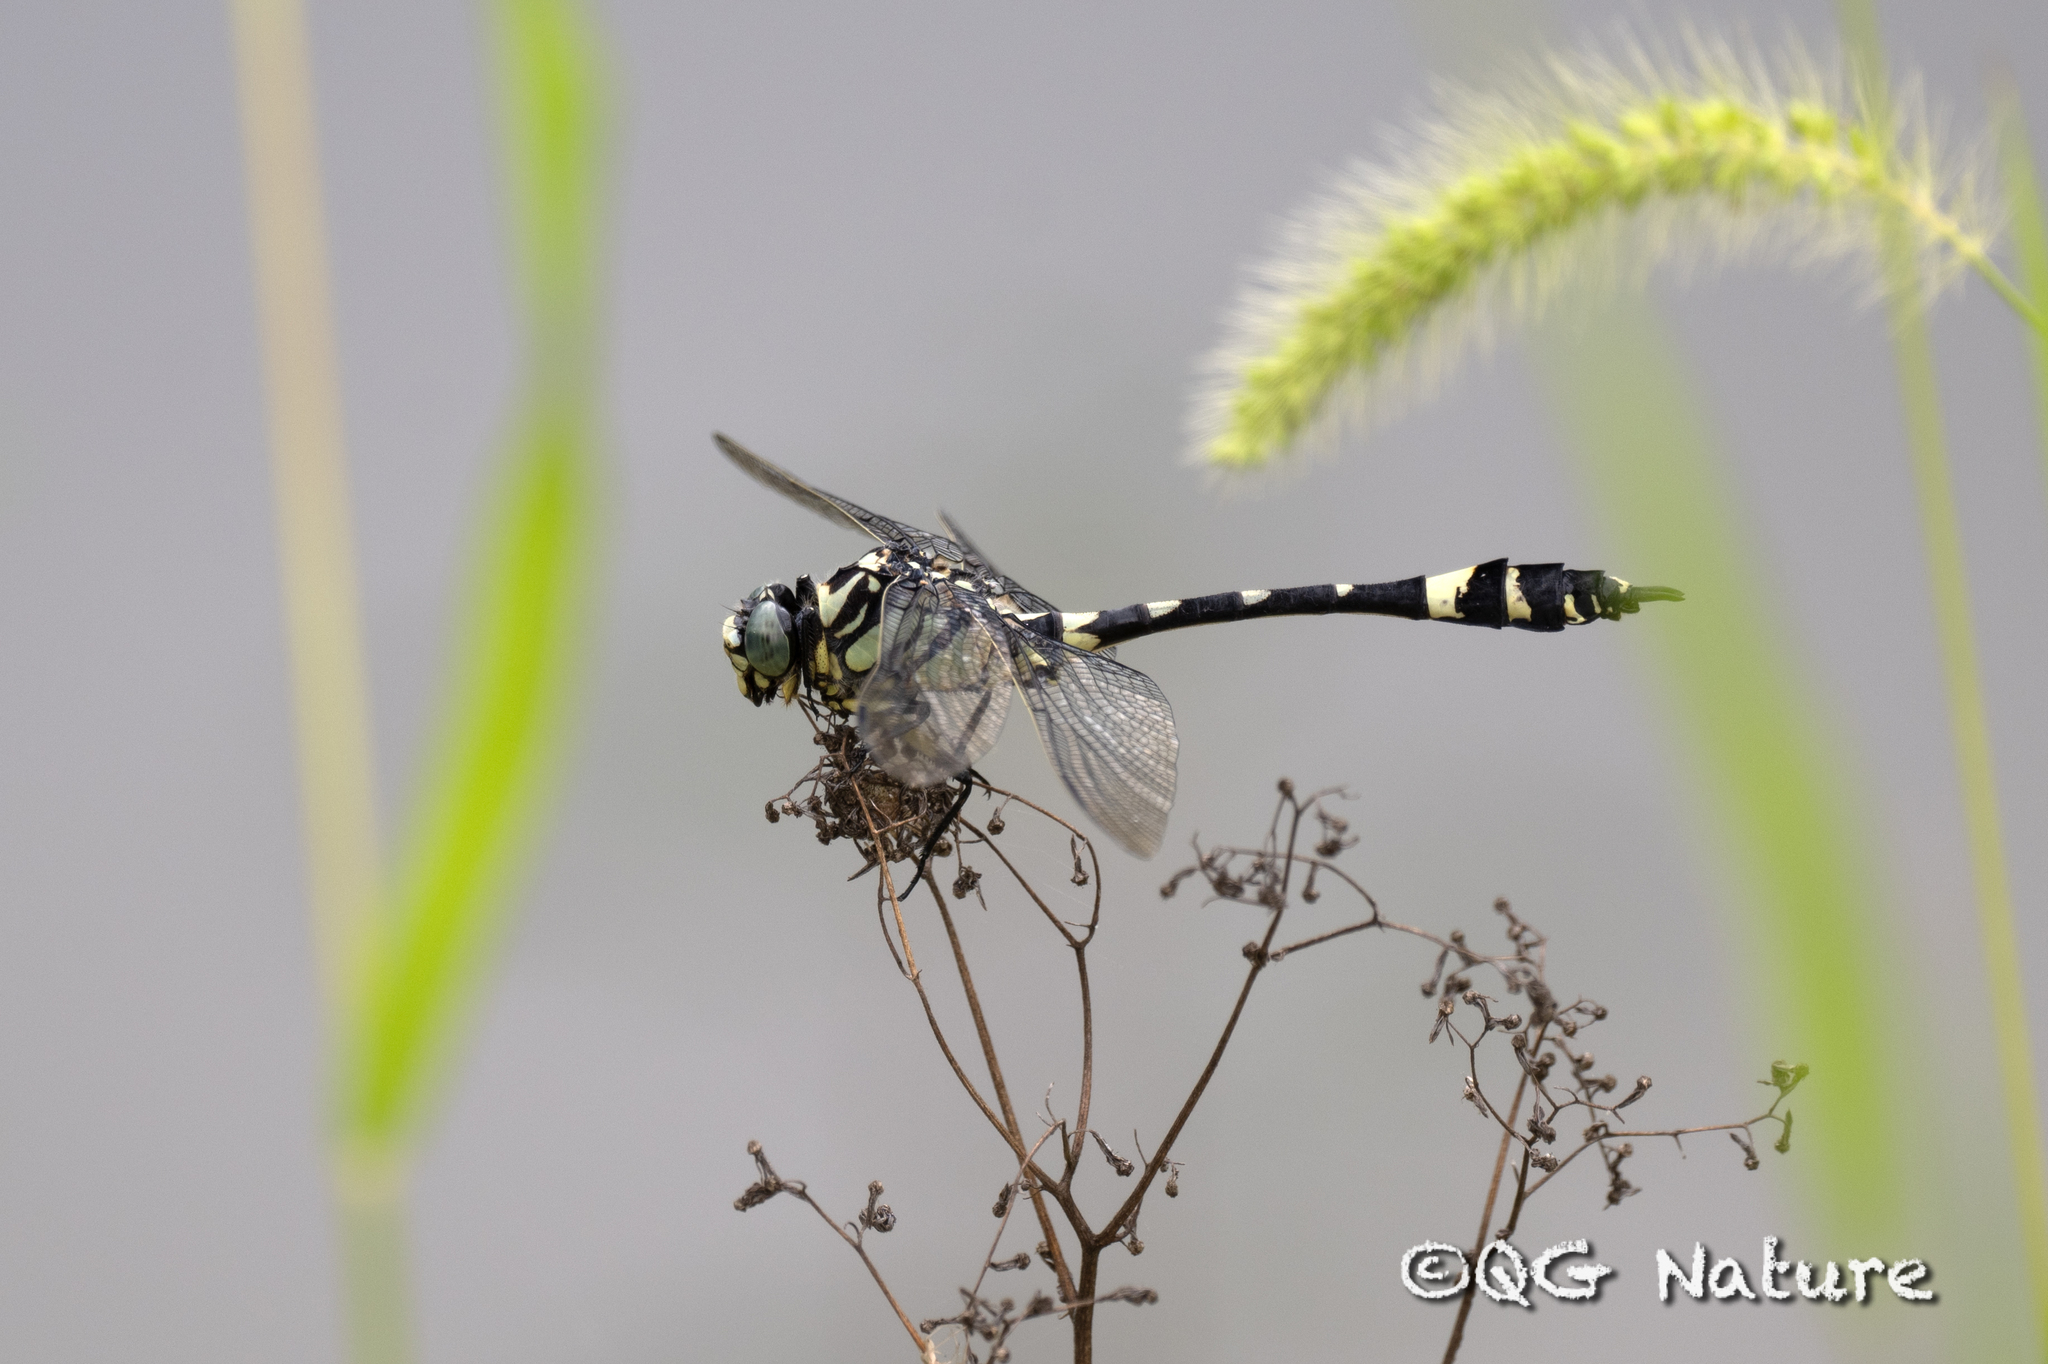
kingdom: Animalia
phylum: Arthropoda
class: Insecta
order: Odonata
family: Gomphidae
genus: Gomphidia
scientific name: Gomphidia confluens
